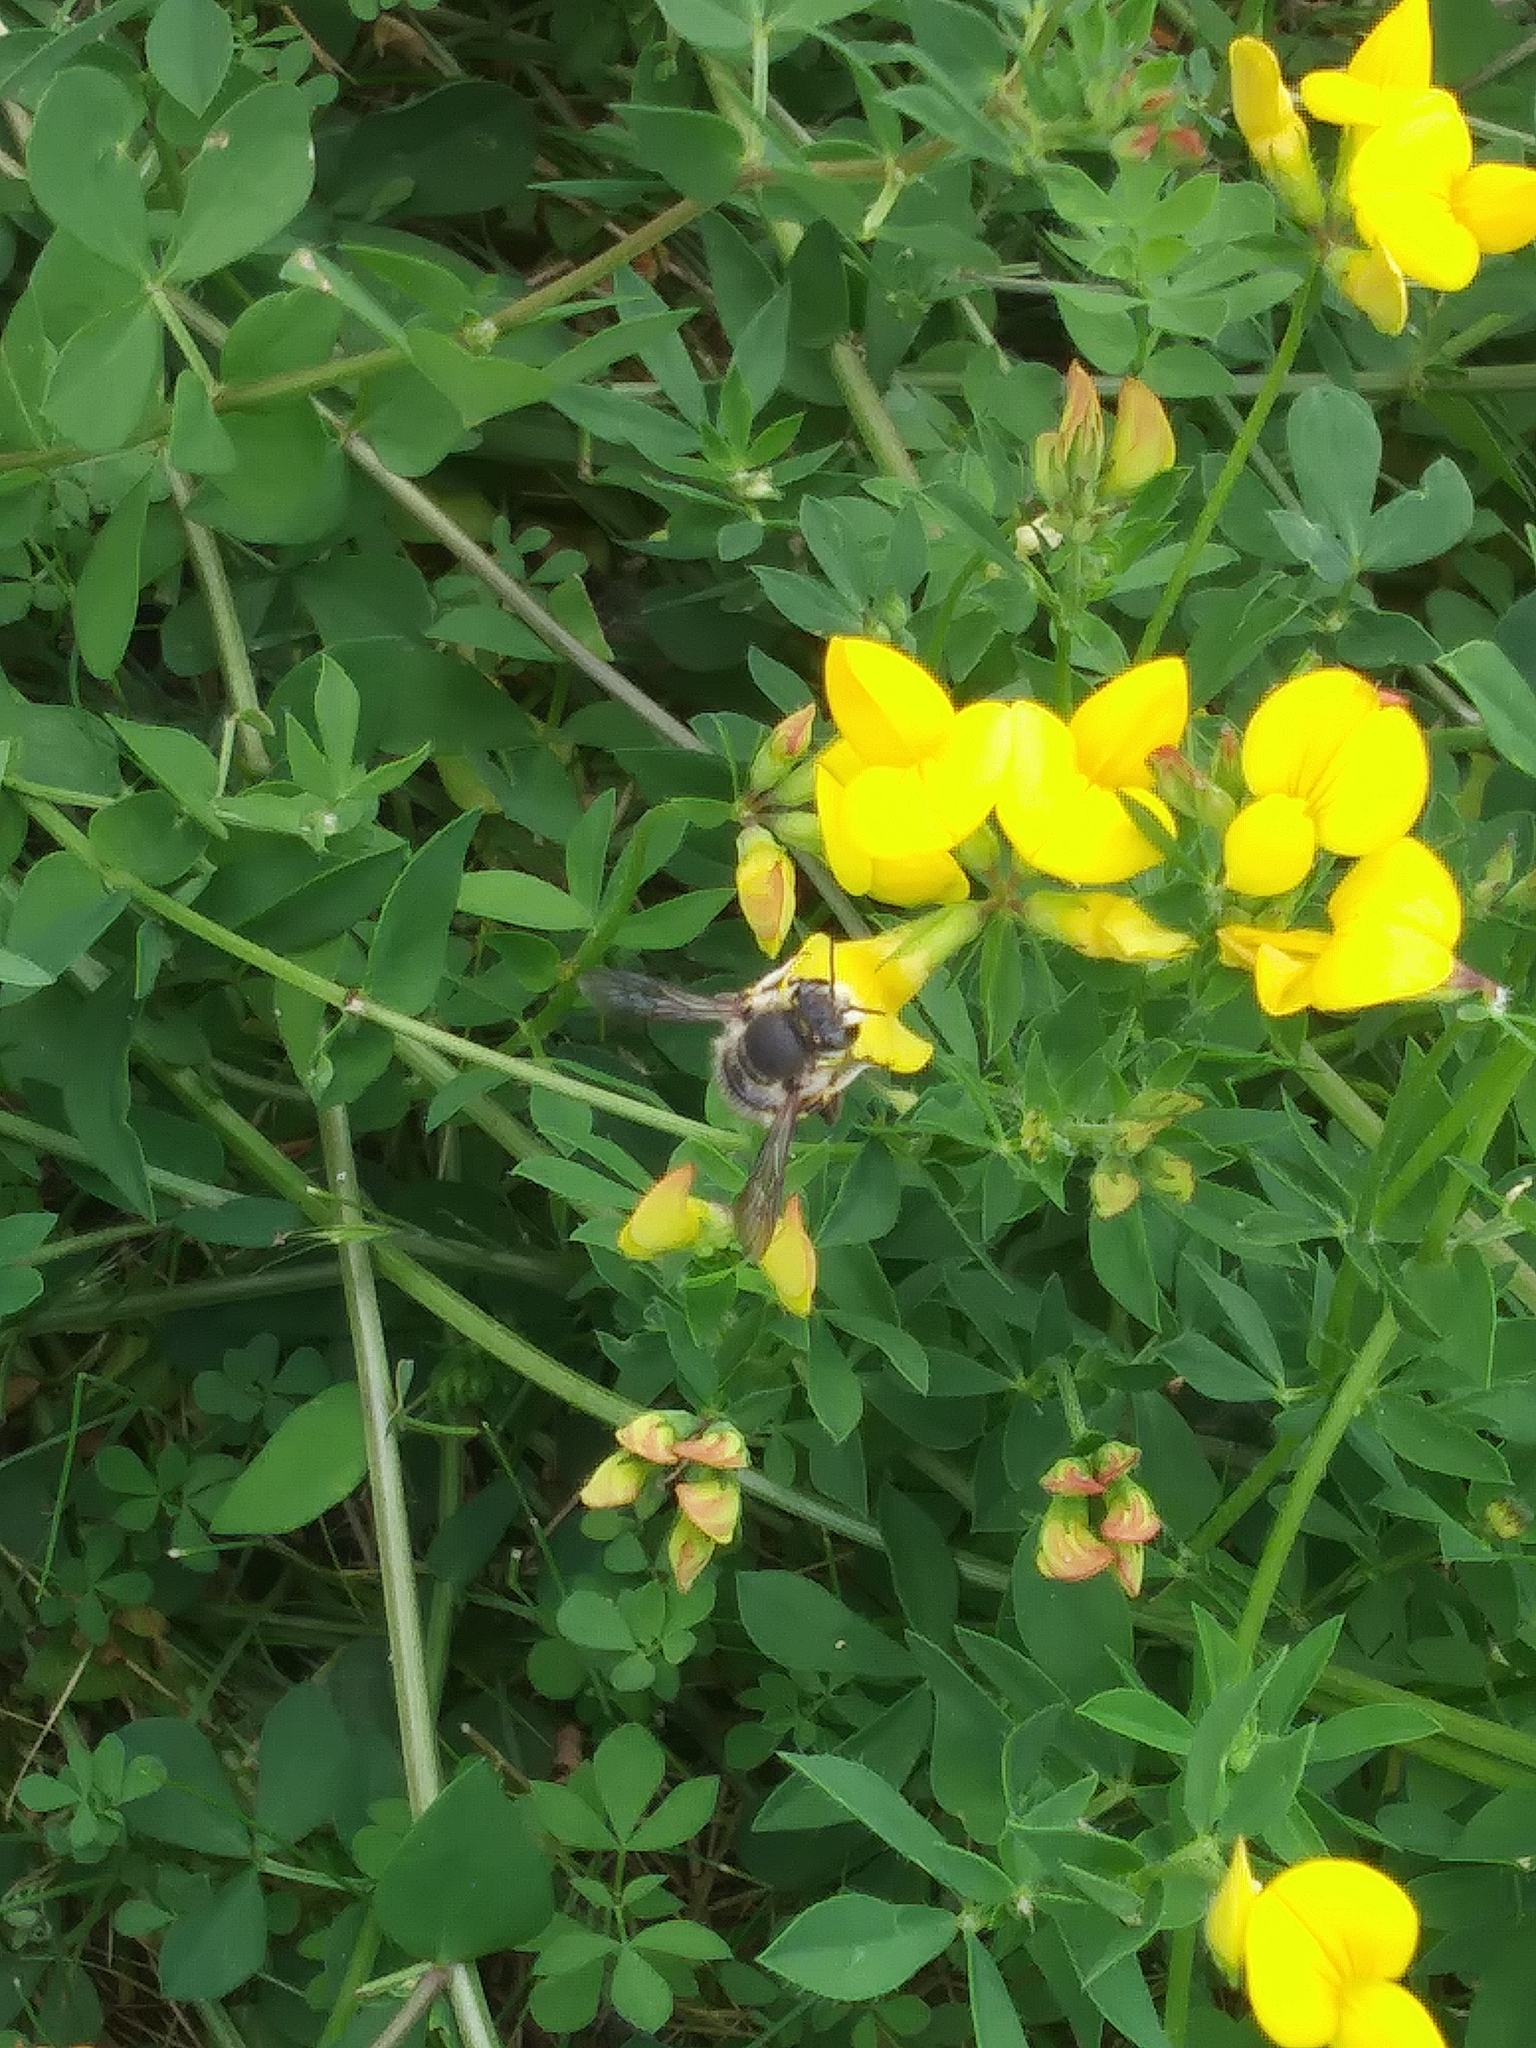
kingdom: Animalia
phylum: Arthropoda
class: Insecta
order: Hymenoptera
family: Megachilidae
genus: Anthidium
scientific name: Anthidium manicatum
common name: Wool carder bee
